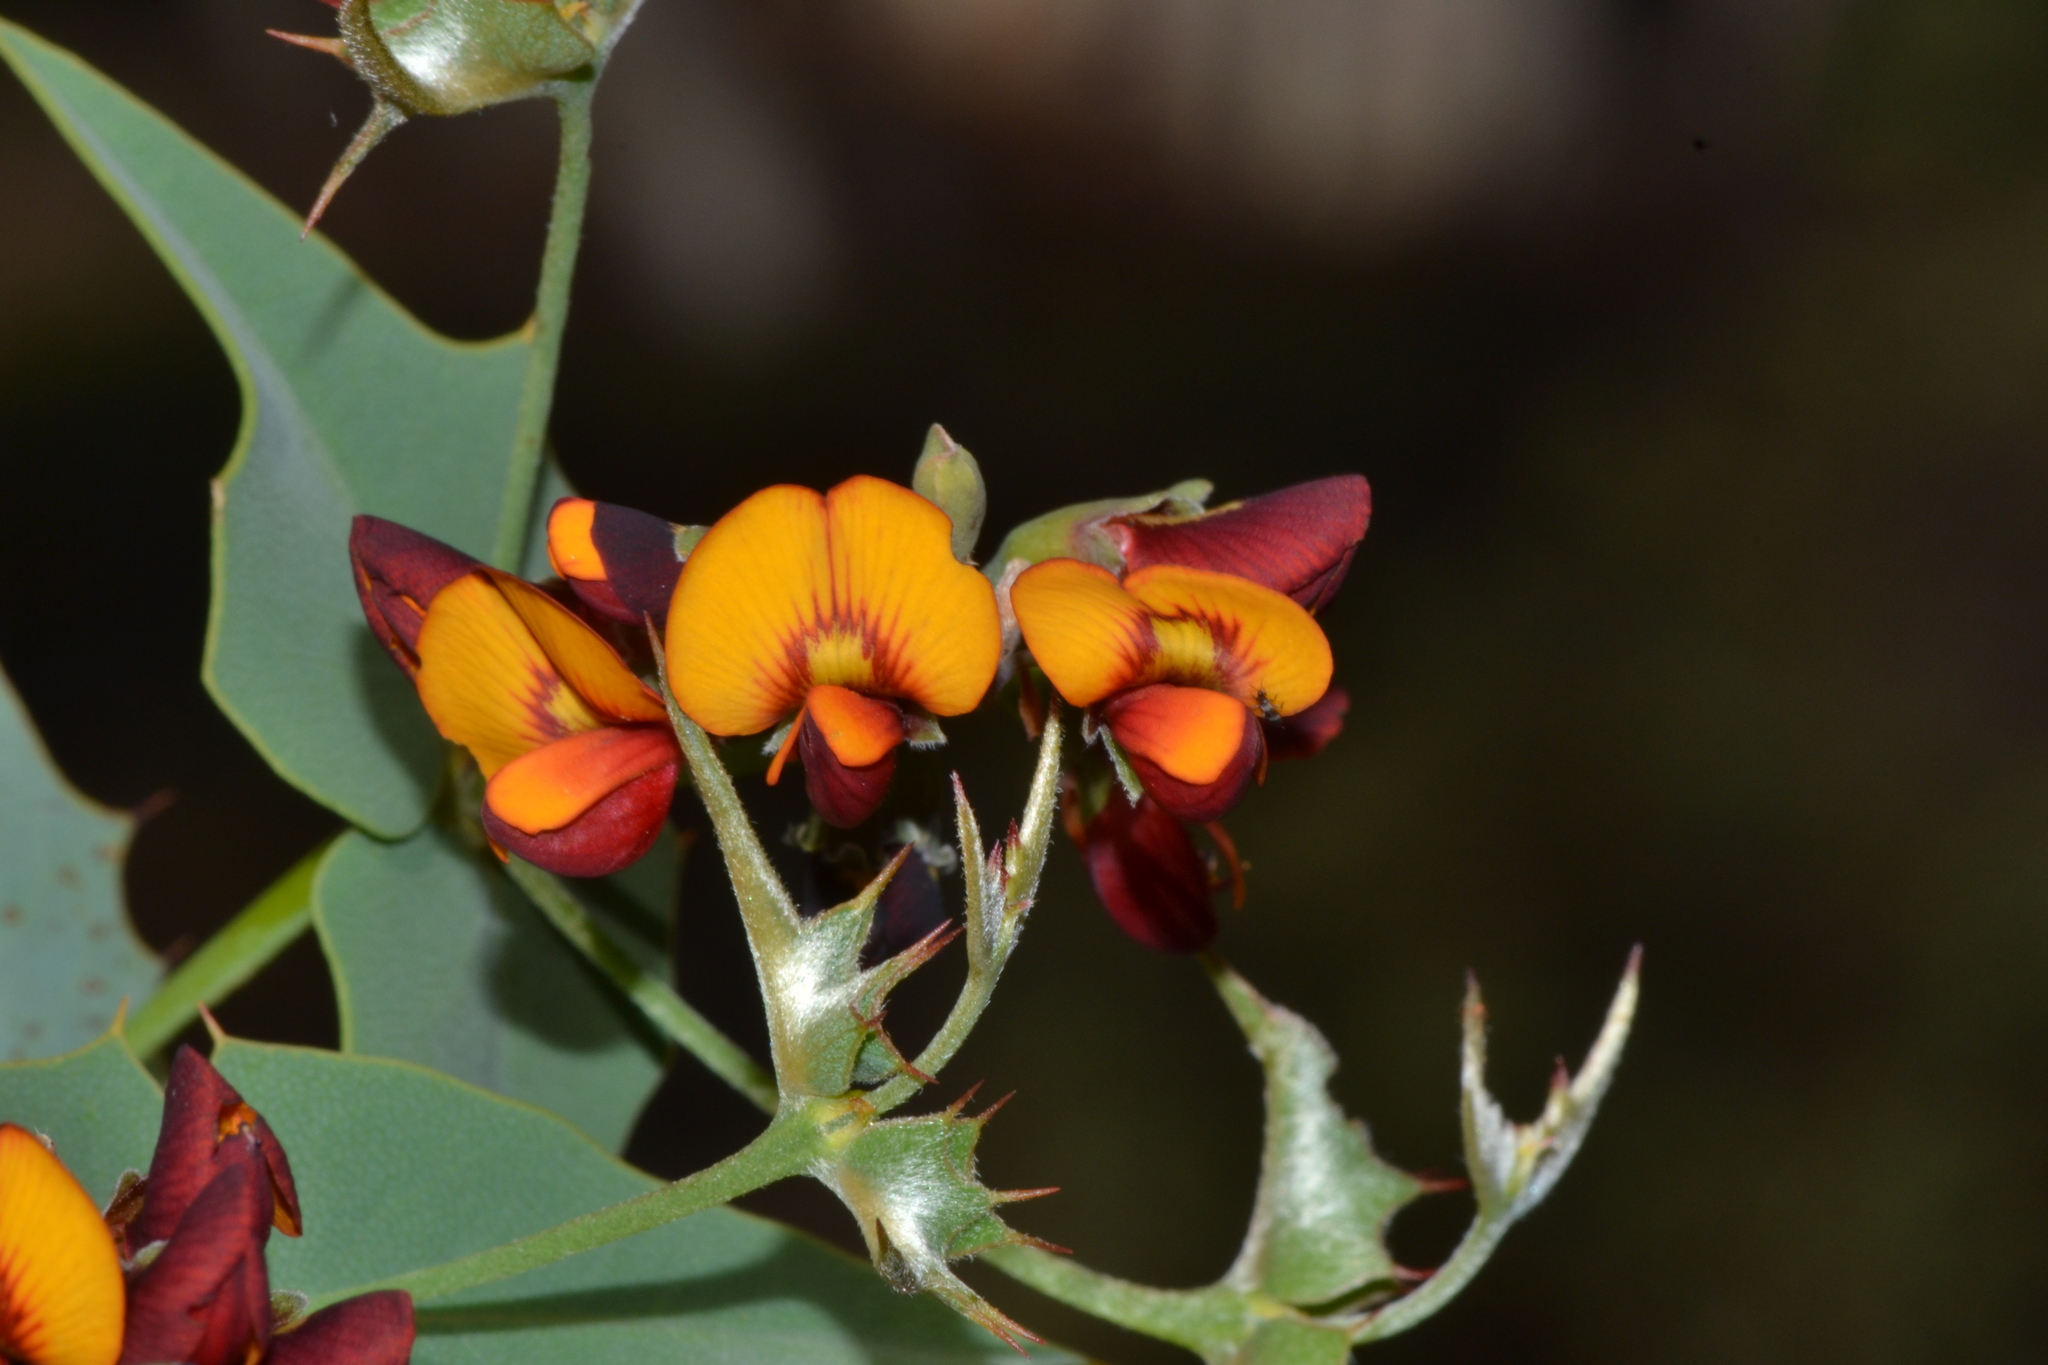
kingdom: Plantae
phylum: Tracheophyta
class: Magnoliopsida
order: Fabales
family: Fabaceae
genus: Gastrolobium
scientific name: Gastrolobium spinosum
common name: Prickly poison
